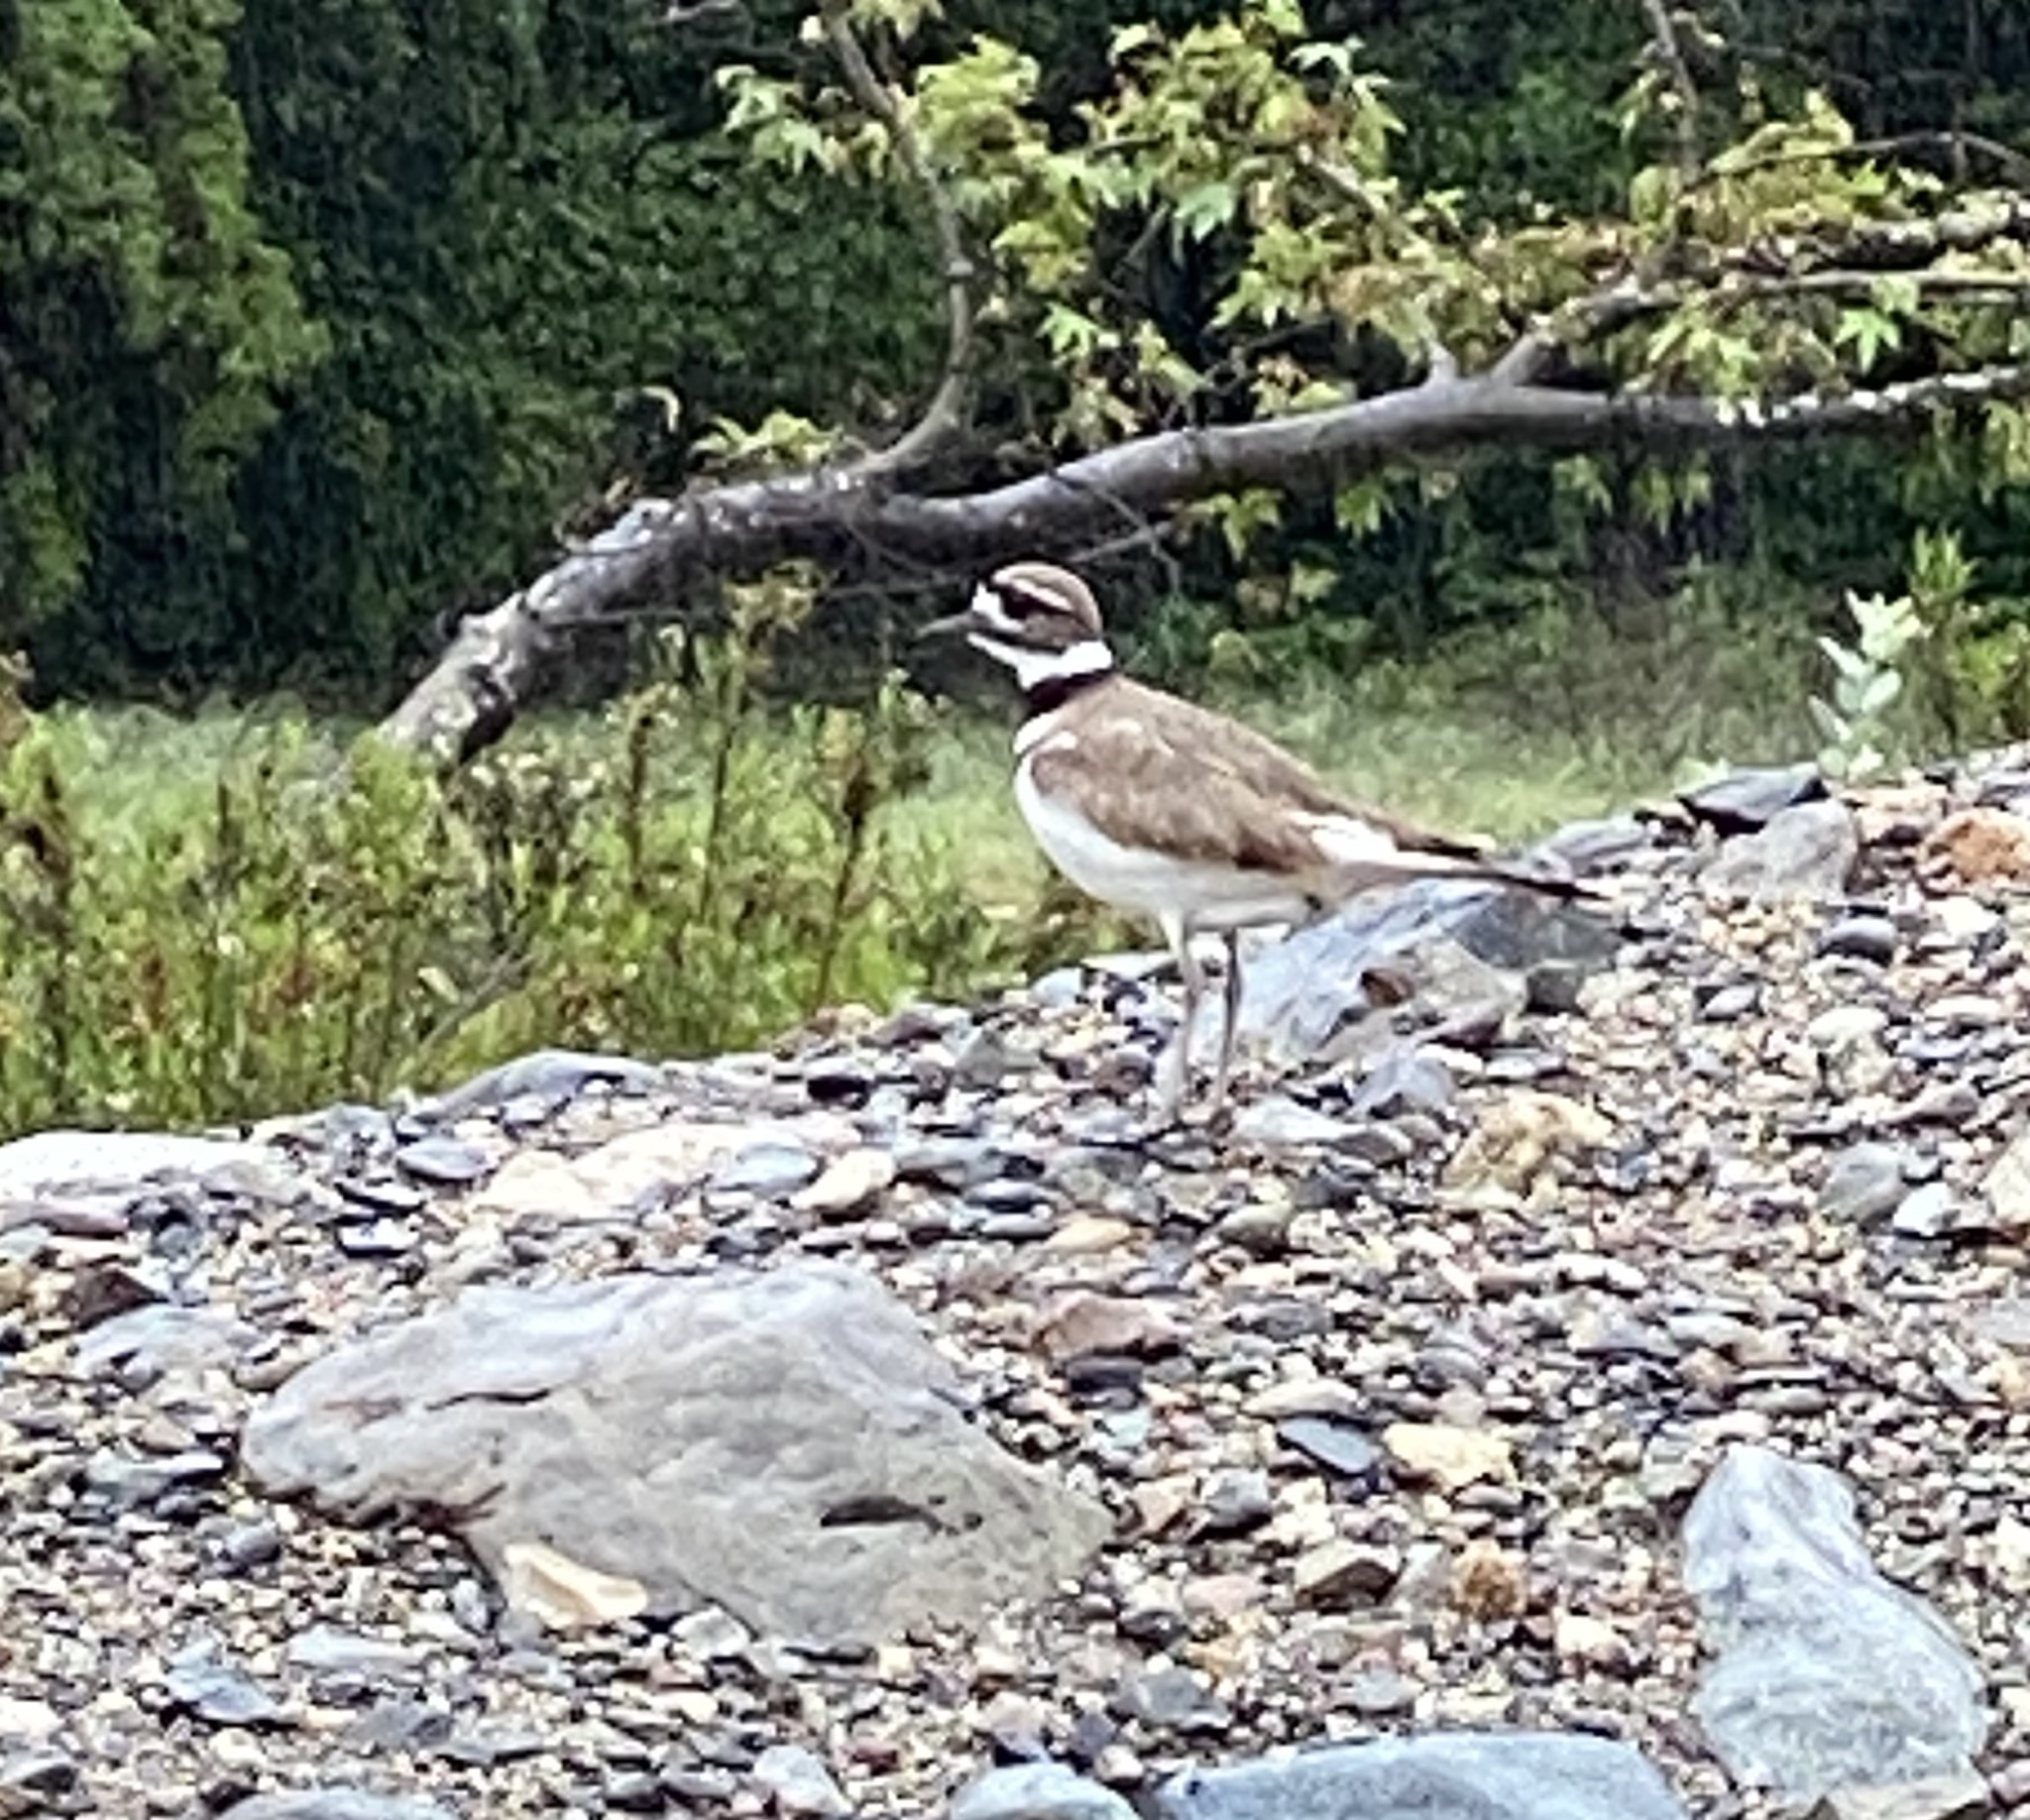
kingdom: Animalia
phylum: Chordata
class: Aves
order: Charadriiformes
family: Charadriidae
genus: Charadrius
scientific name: Charadrius vociferus
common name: Killdeer
